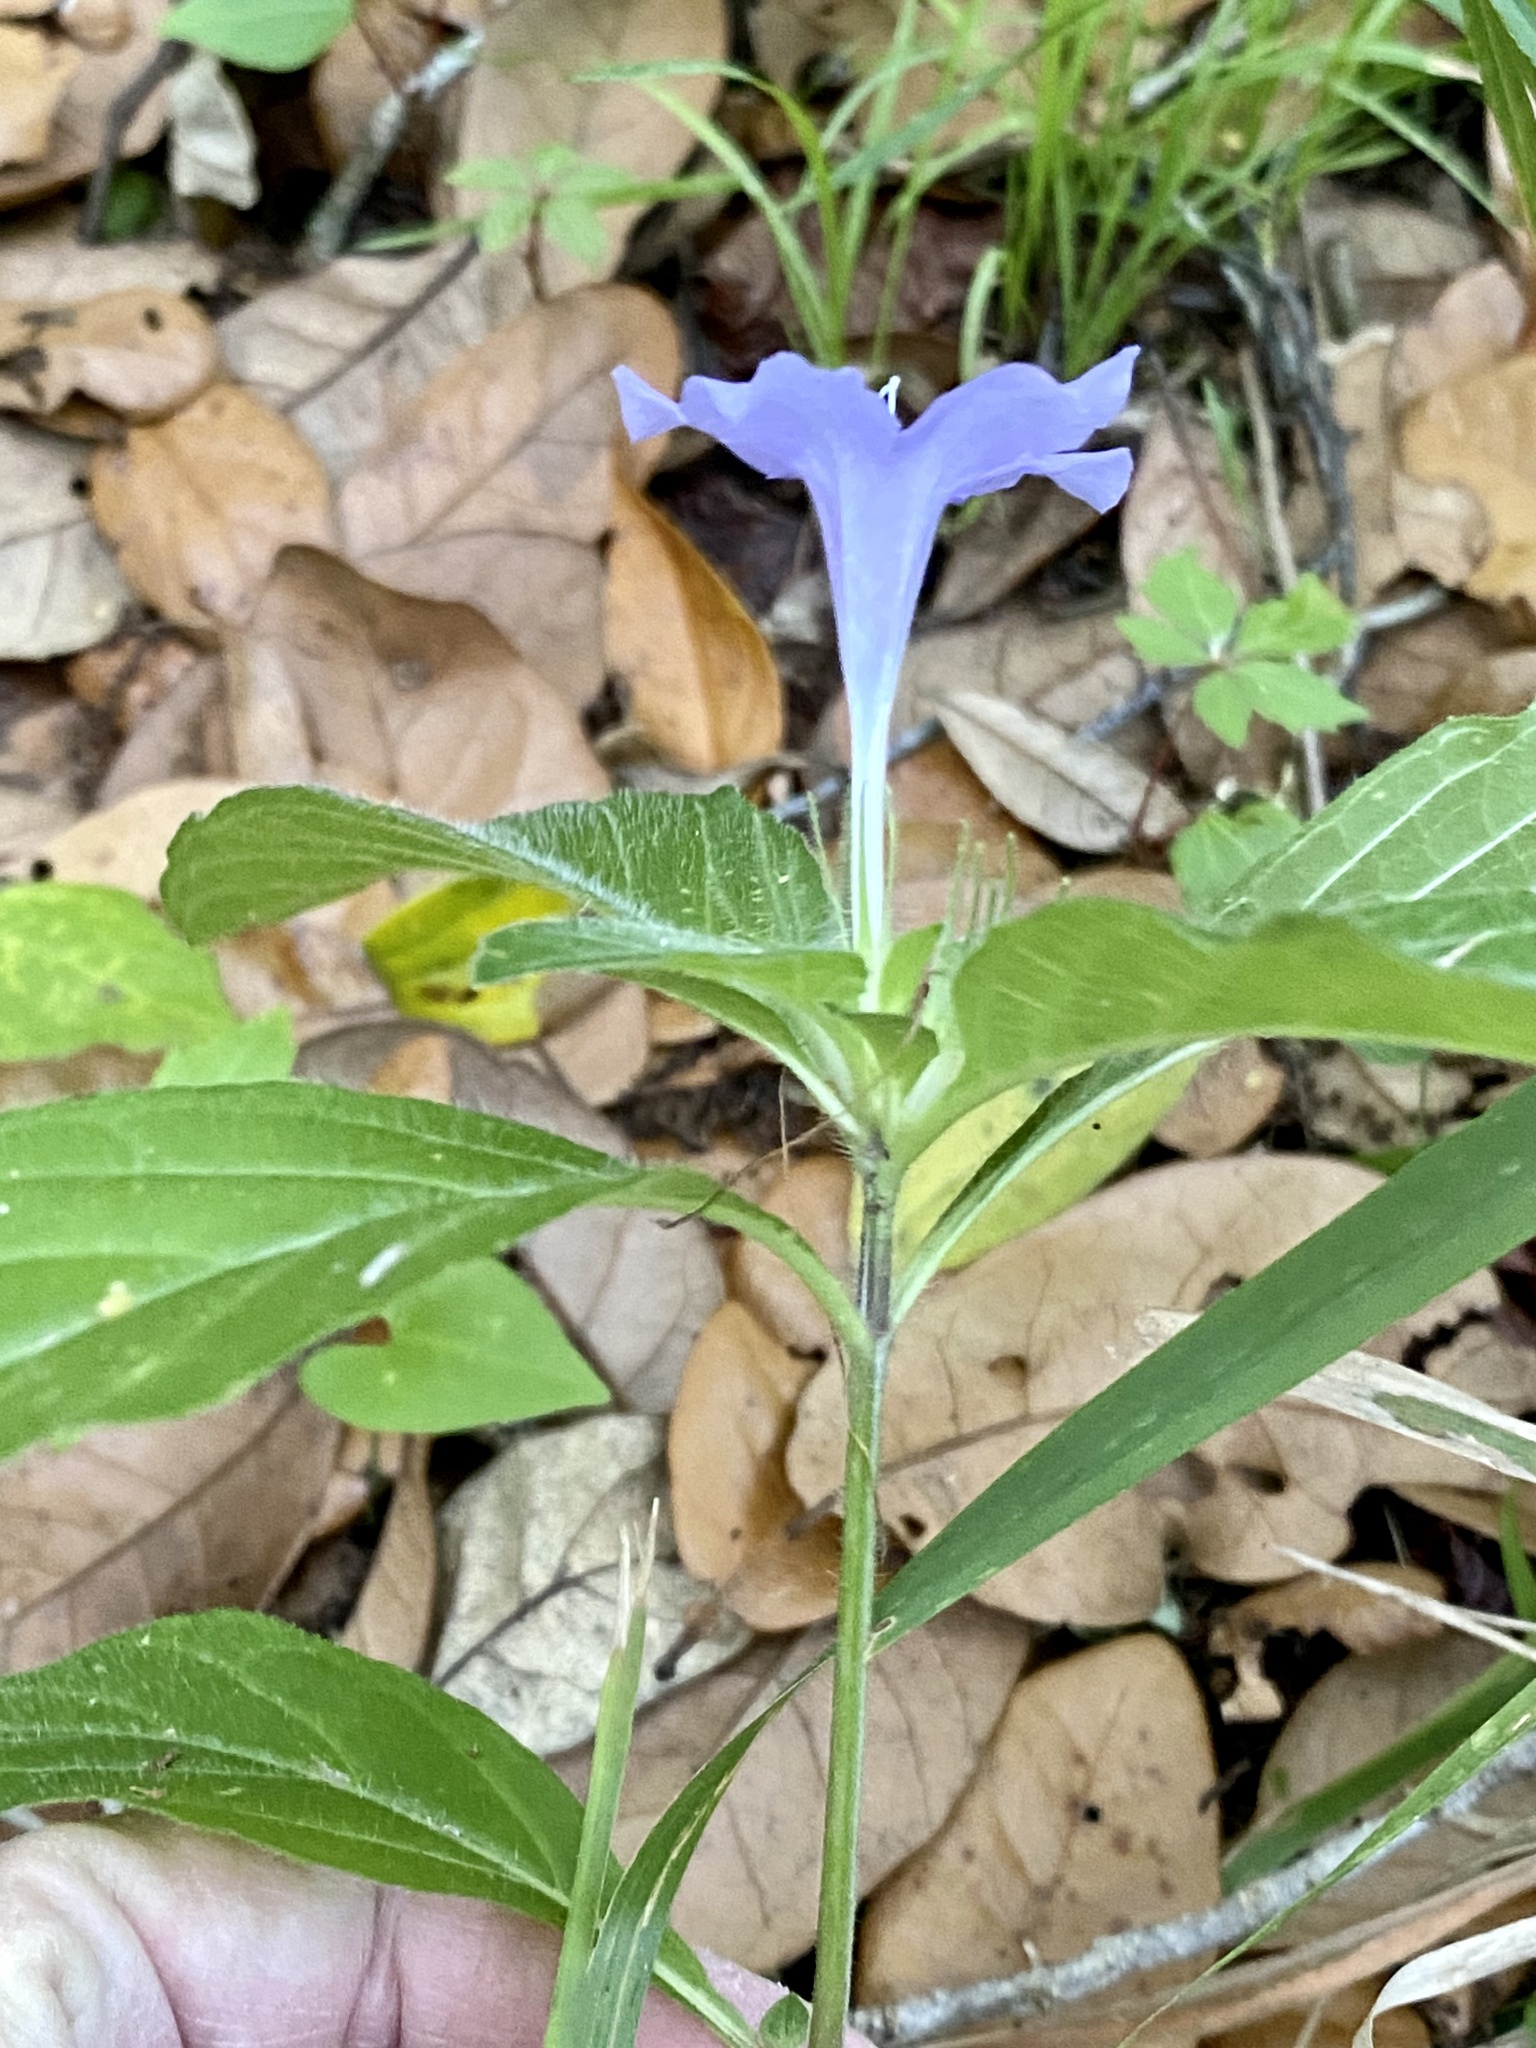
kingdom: Plantae
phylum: Tracheophyta
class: Magnoliopsida
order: Lamiales
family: Acanthaceae
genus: Ruellia
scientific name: Ruellia caroliniensis
